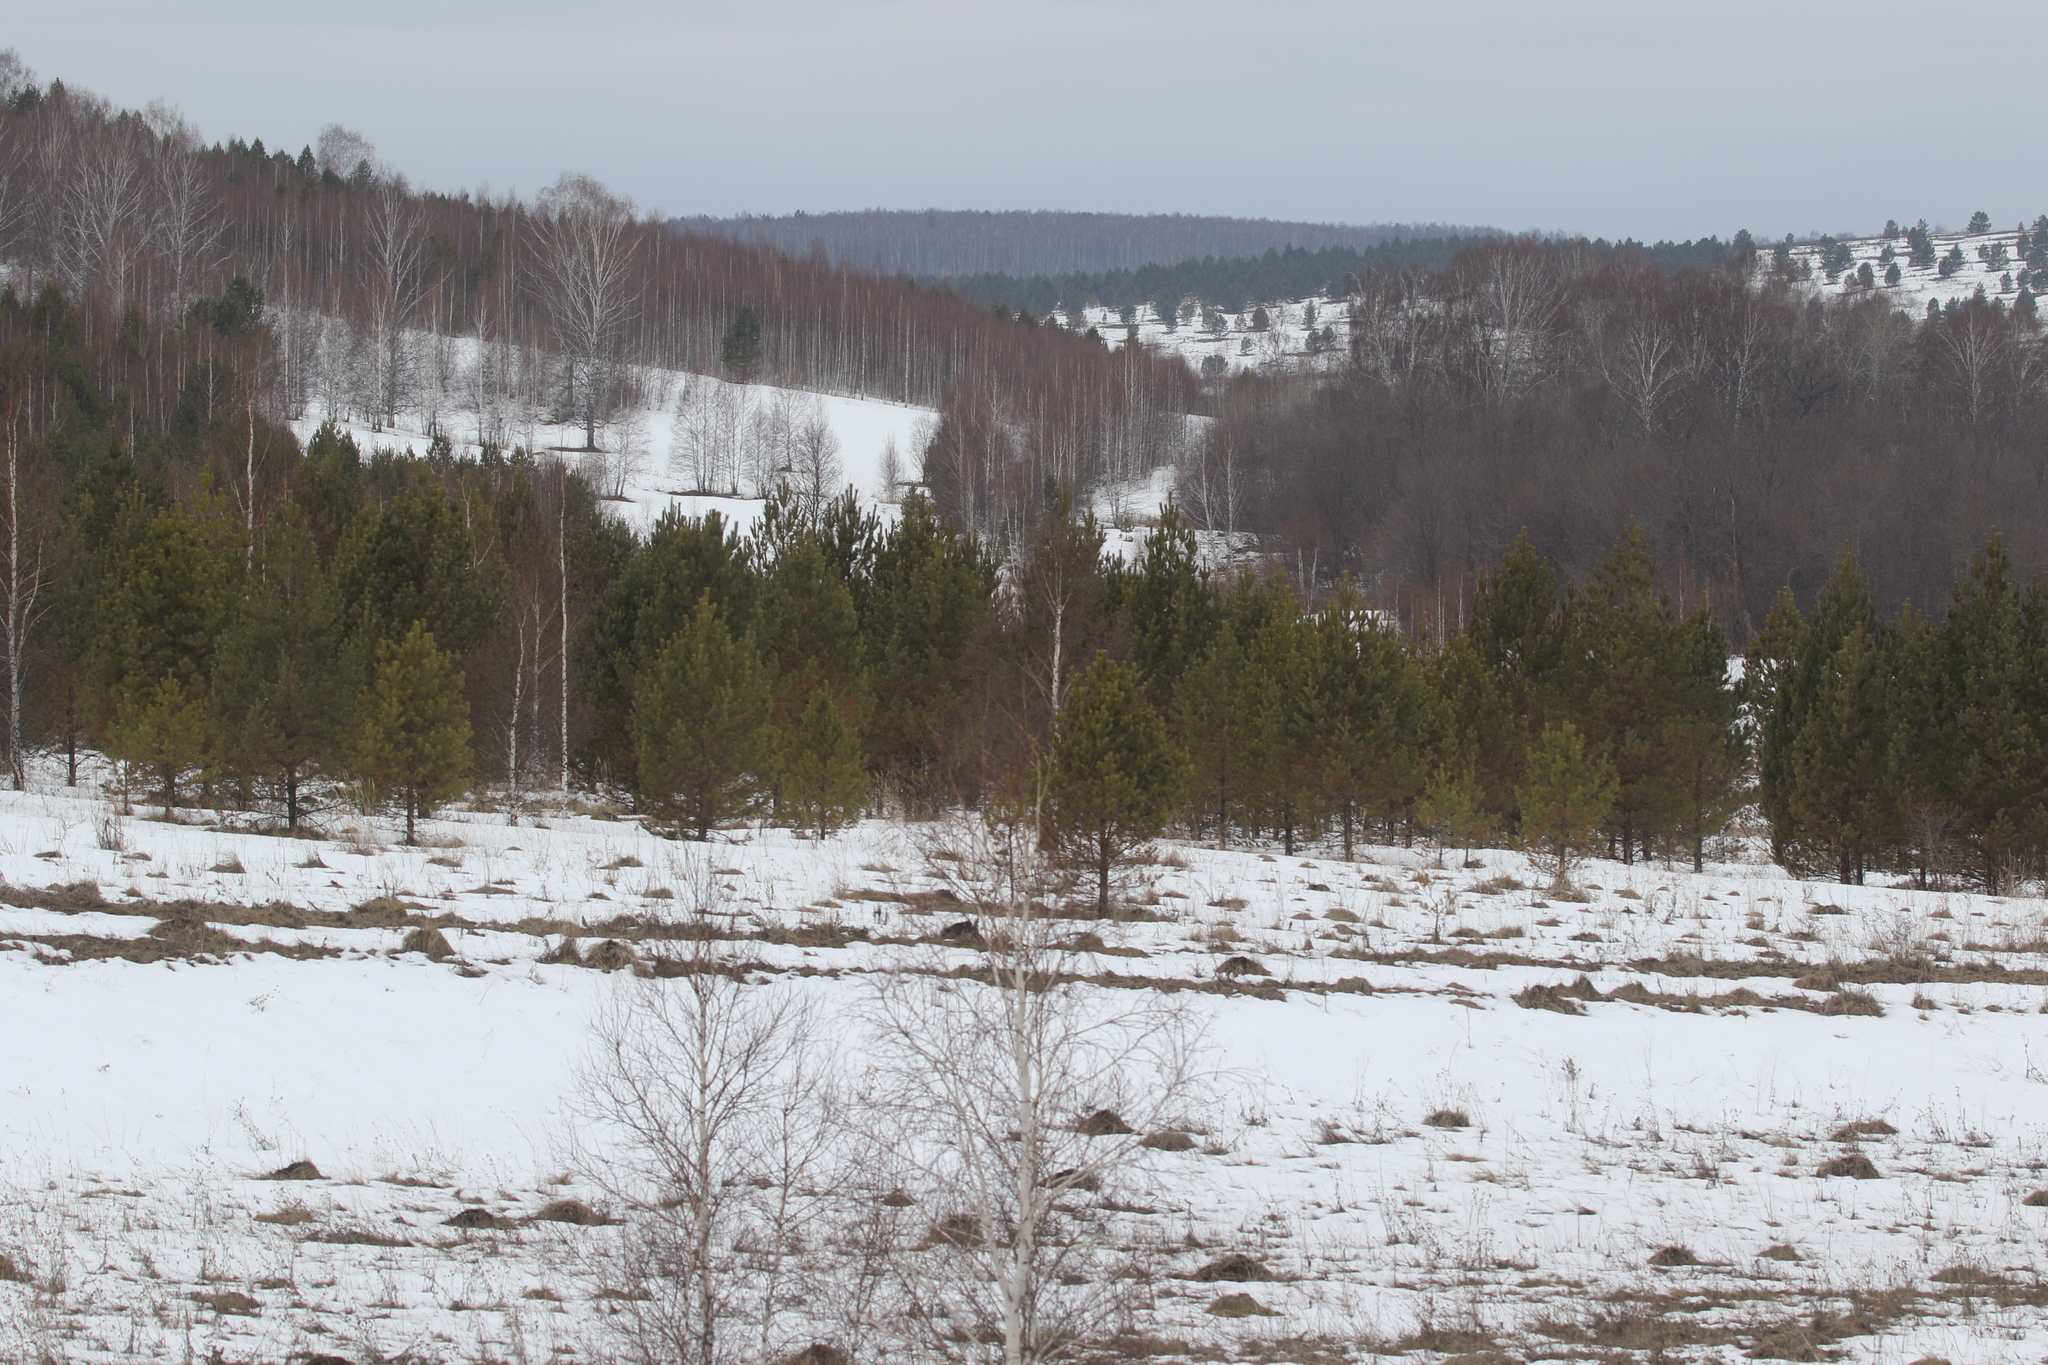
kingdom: Plantae
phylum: Tracheophyta
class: Pinopsida
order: Pinales
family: Pinaceae
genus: Pinus
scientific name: Pinus sylvestris
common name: Scots pine
